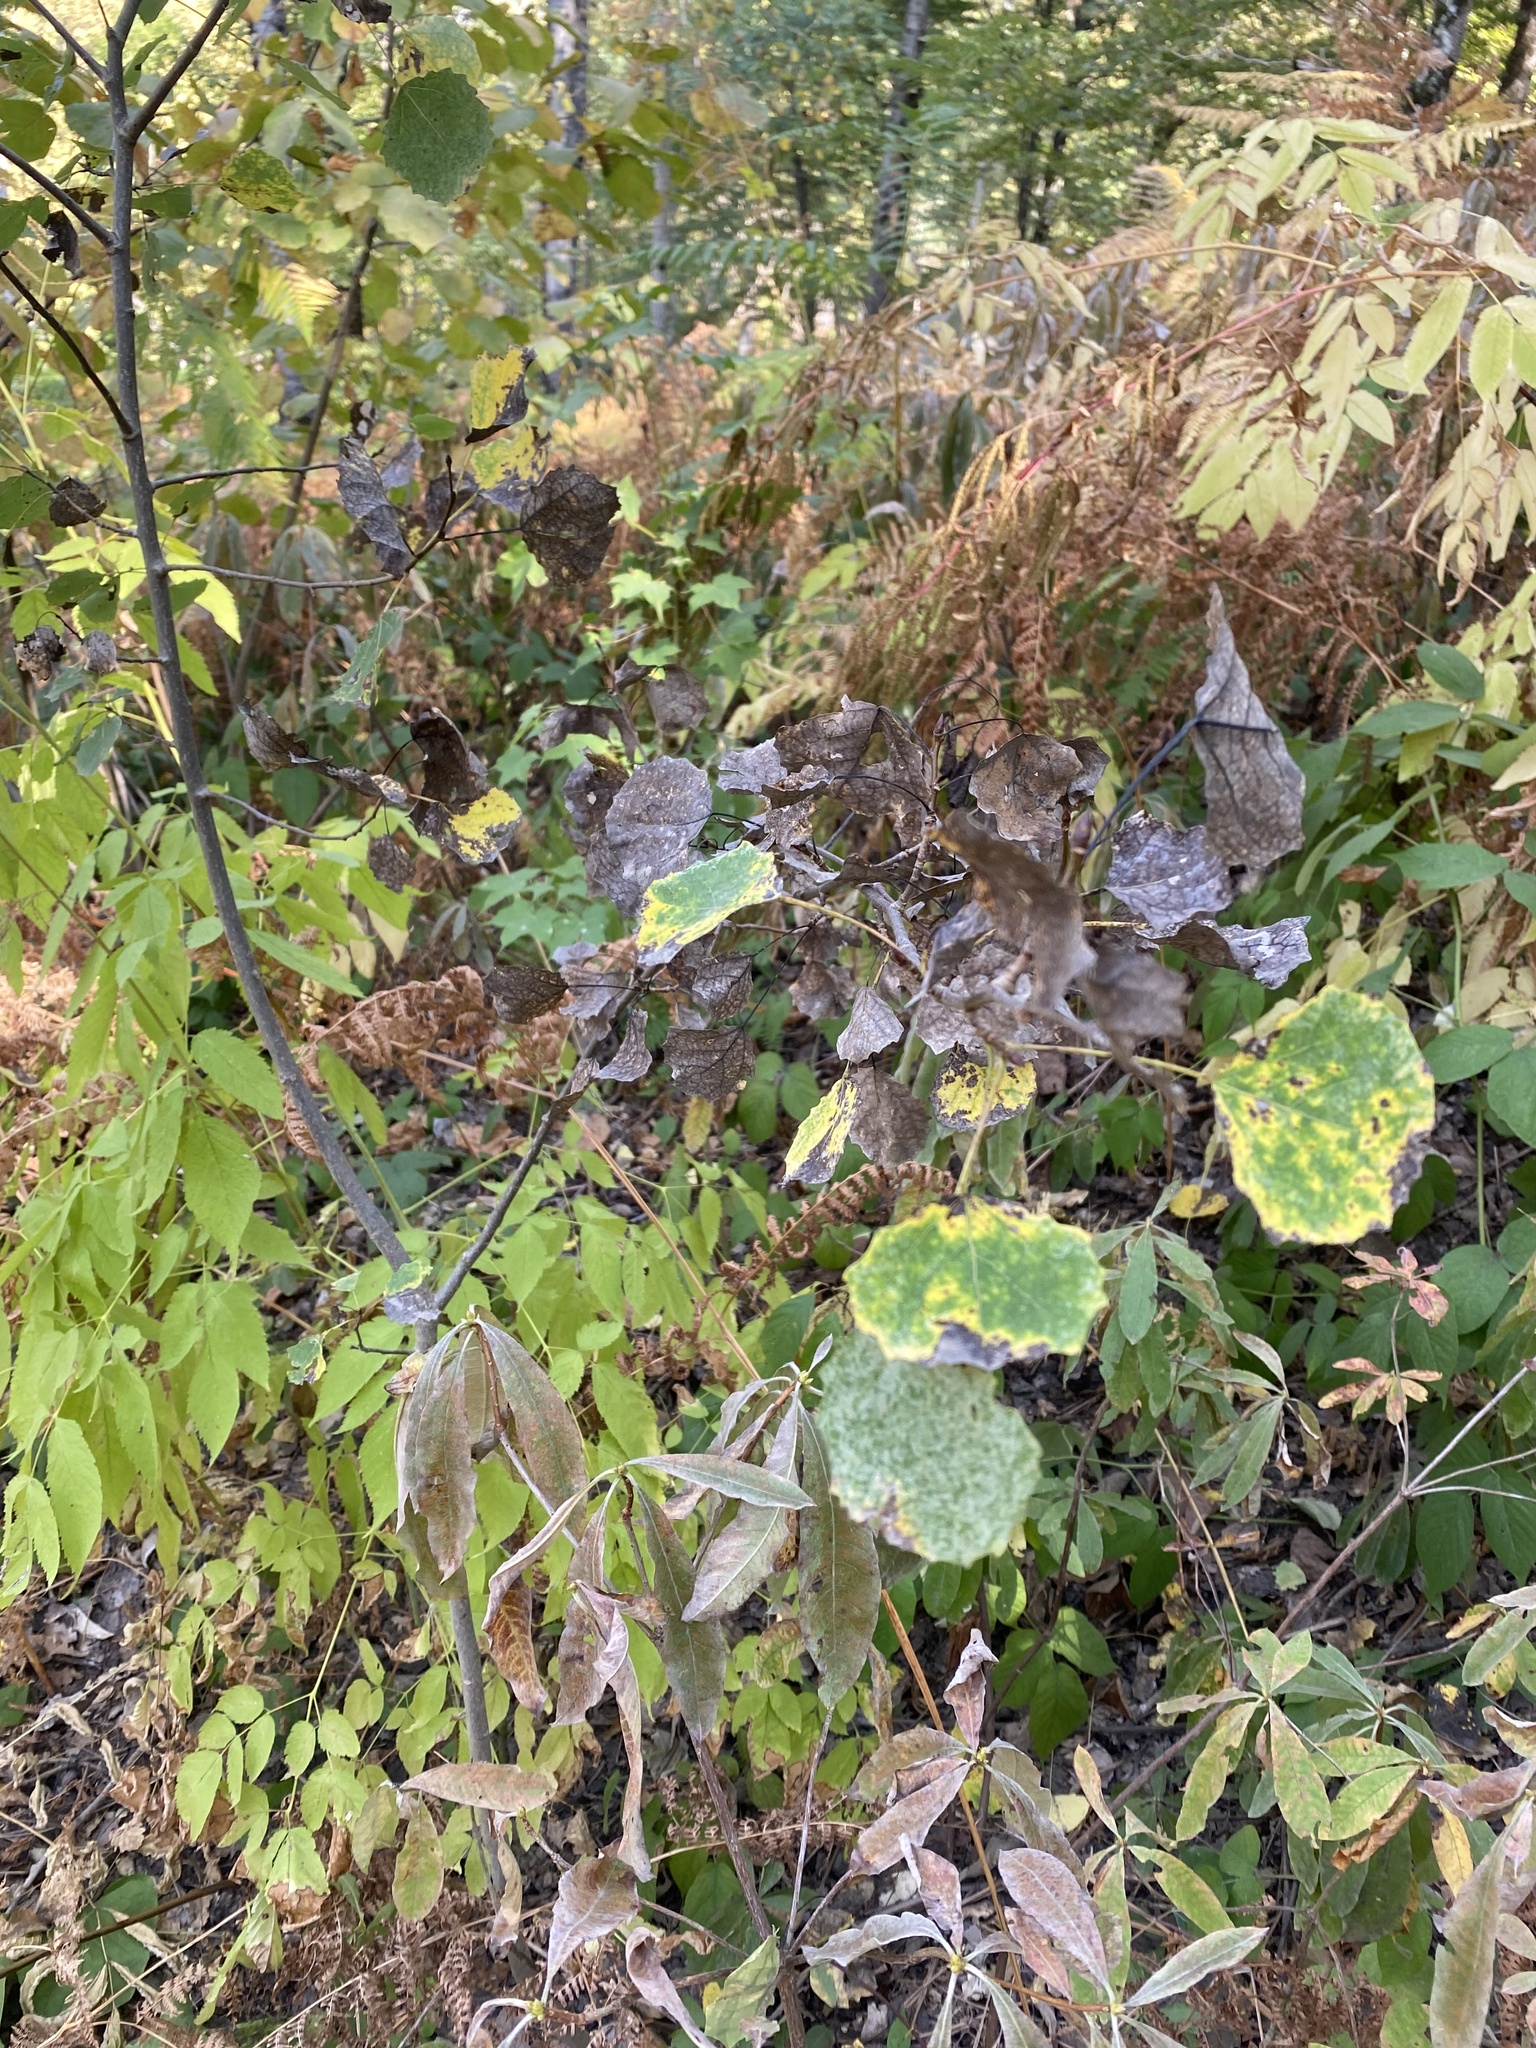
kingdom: Plantae
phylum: Tracheophyta
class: Magnoliopsida
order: Malpighiales
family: Salicaceae
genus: Populus
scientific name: Populus tremula
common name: European aspen
